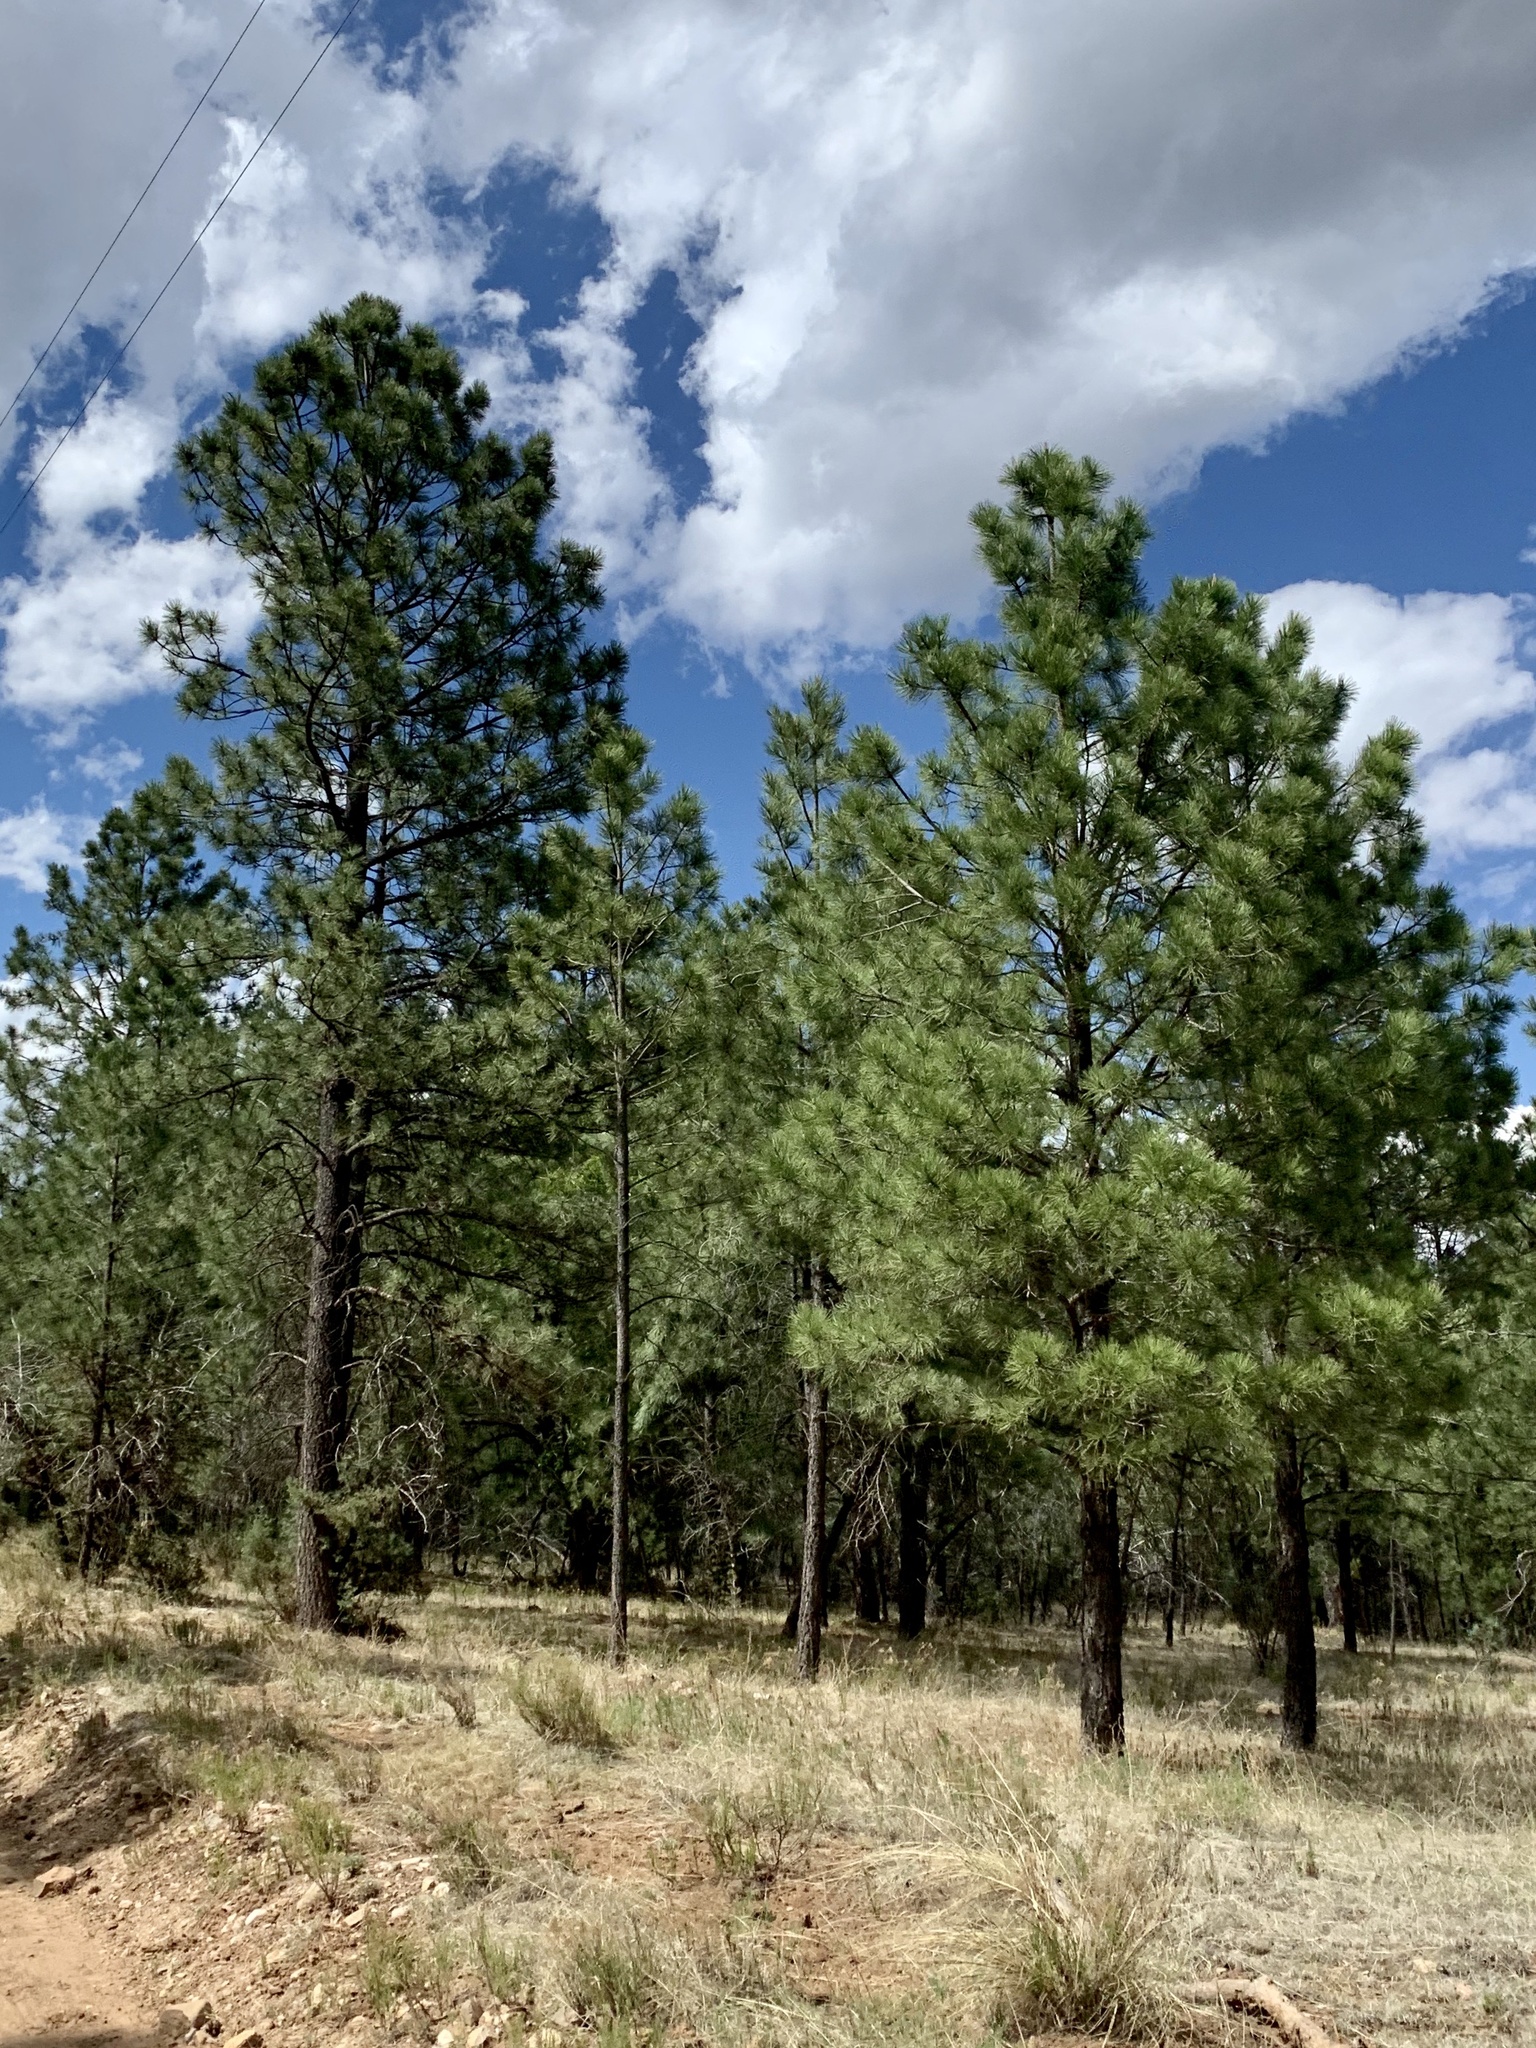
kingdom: Plantae
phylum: Tracheophyta
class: Pinopsida
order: Pinales
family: Pinaceae
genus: Pinus
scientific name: Pinus ponderosa
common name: Western yellow-pine
